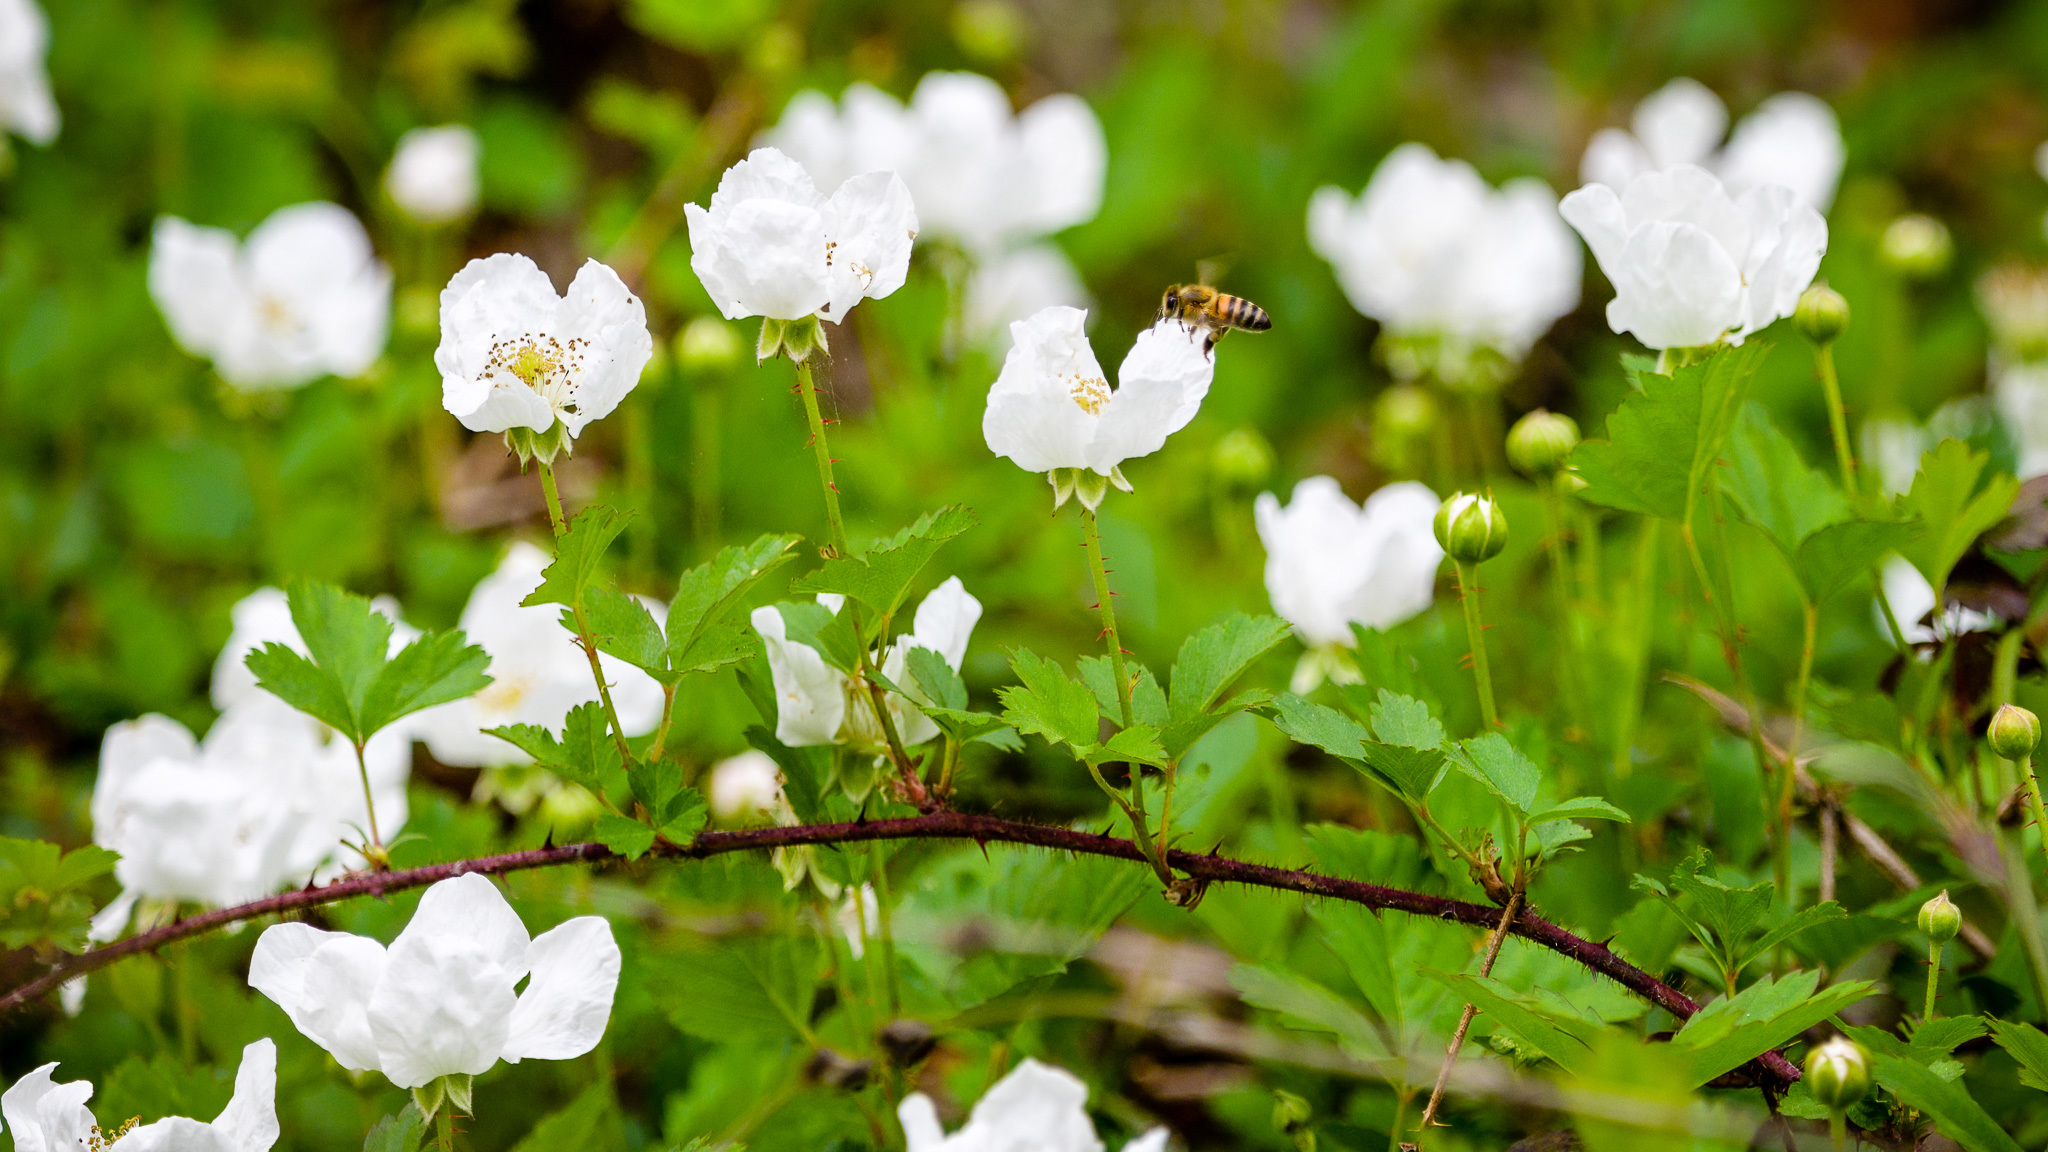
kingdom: Plantae
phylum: Tracheophyta
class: Magnoliopsida
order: Rosales
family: Rosaceae
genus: Rubus
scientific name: Rubus trivialis
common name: Southern dewberry
